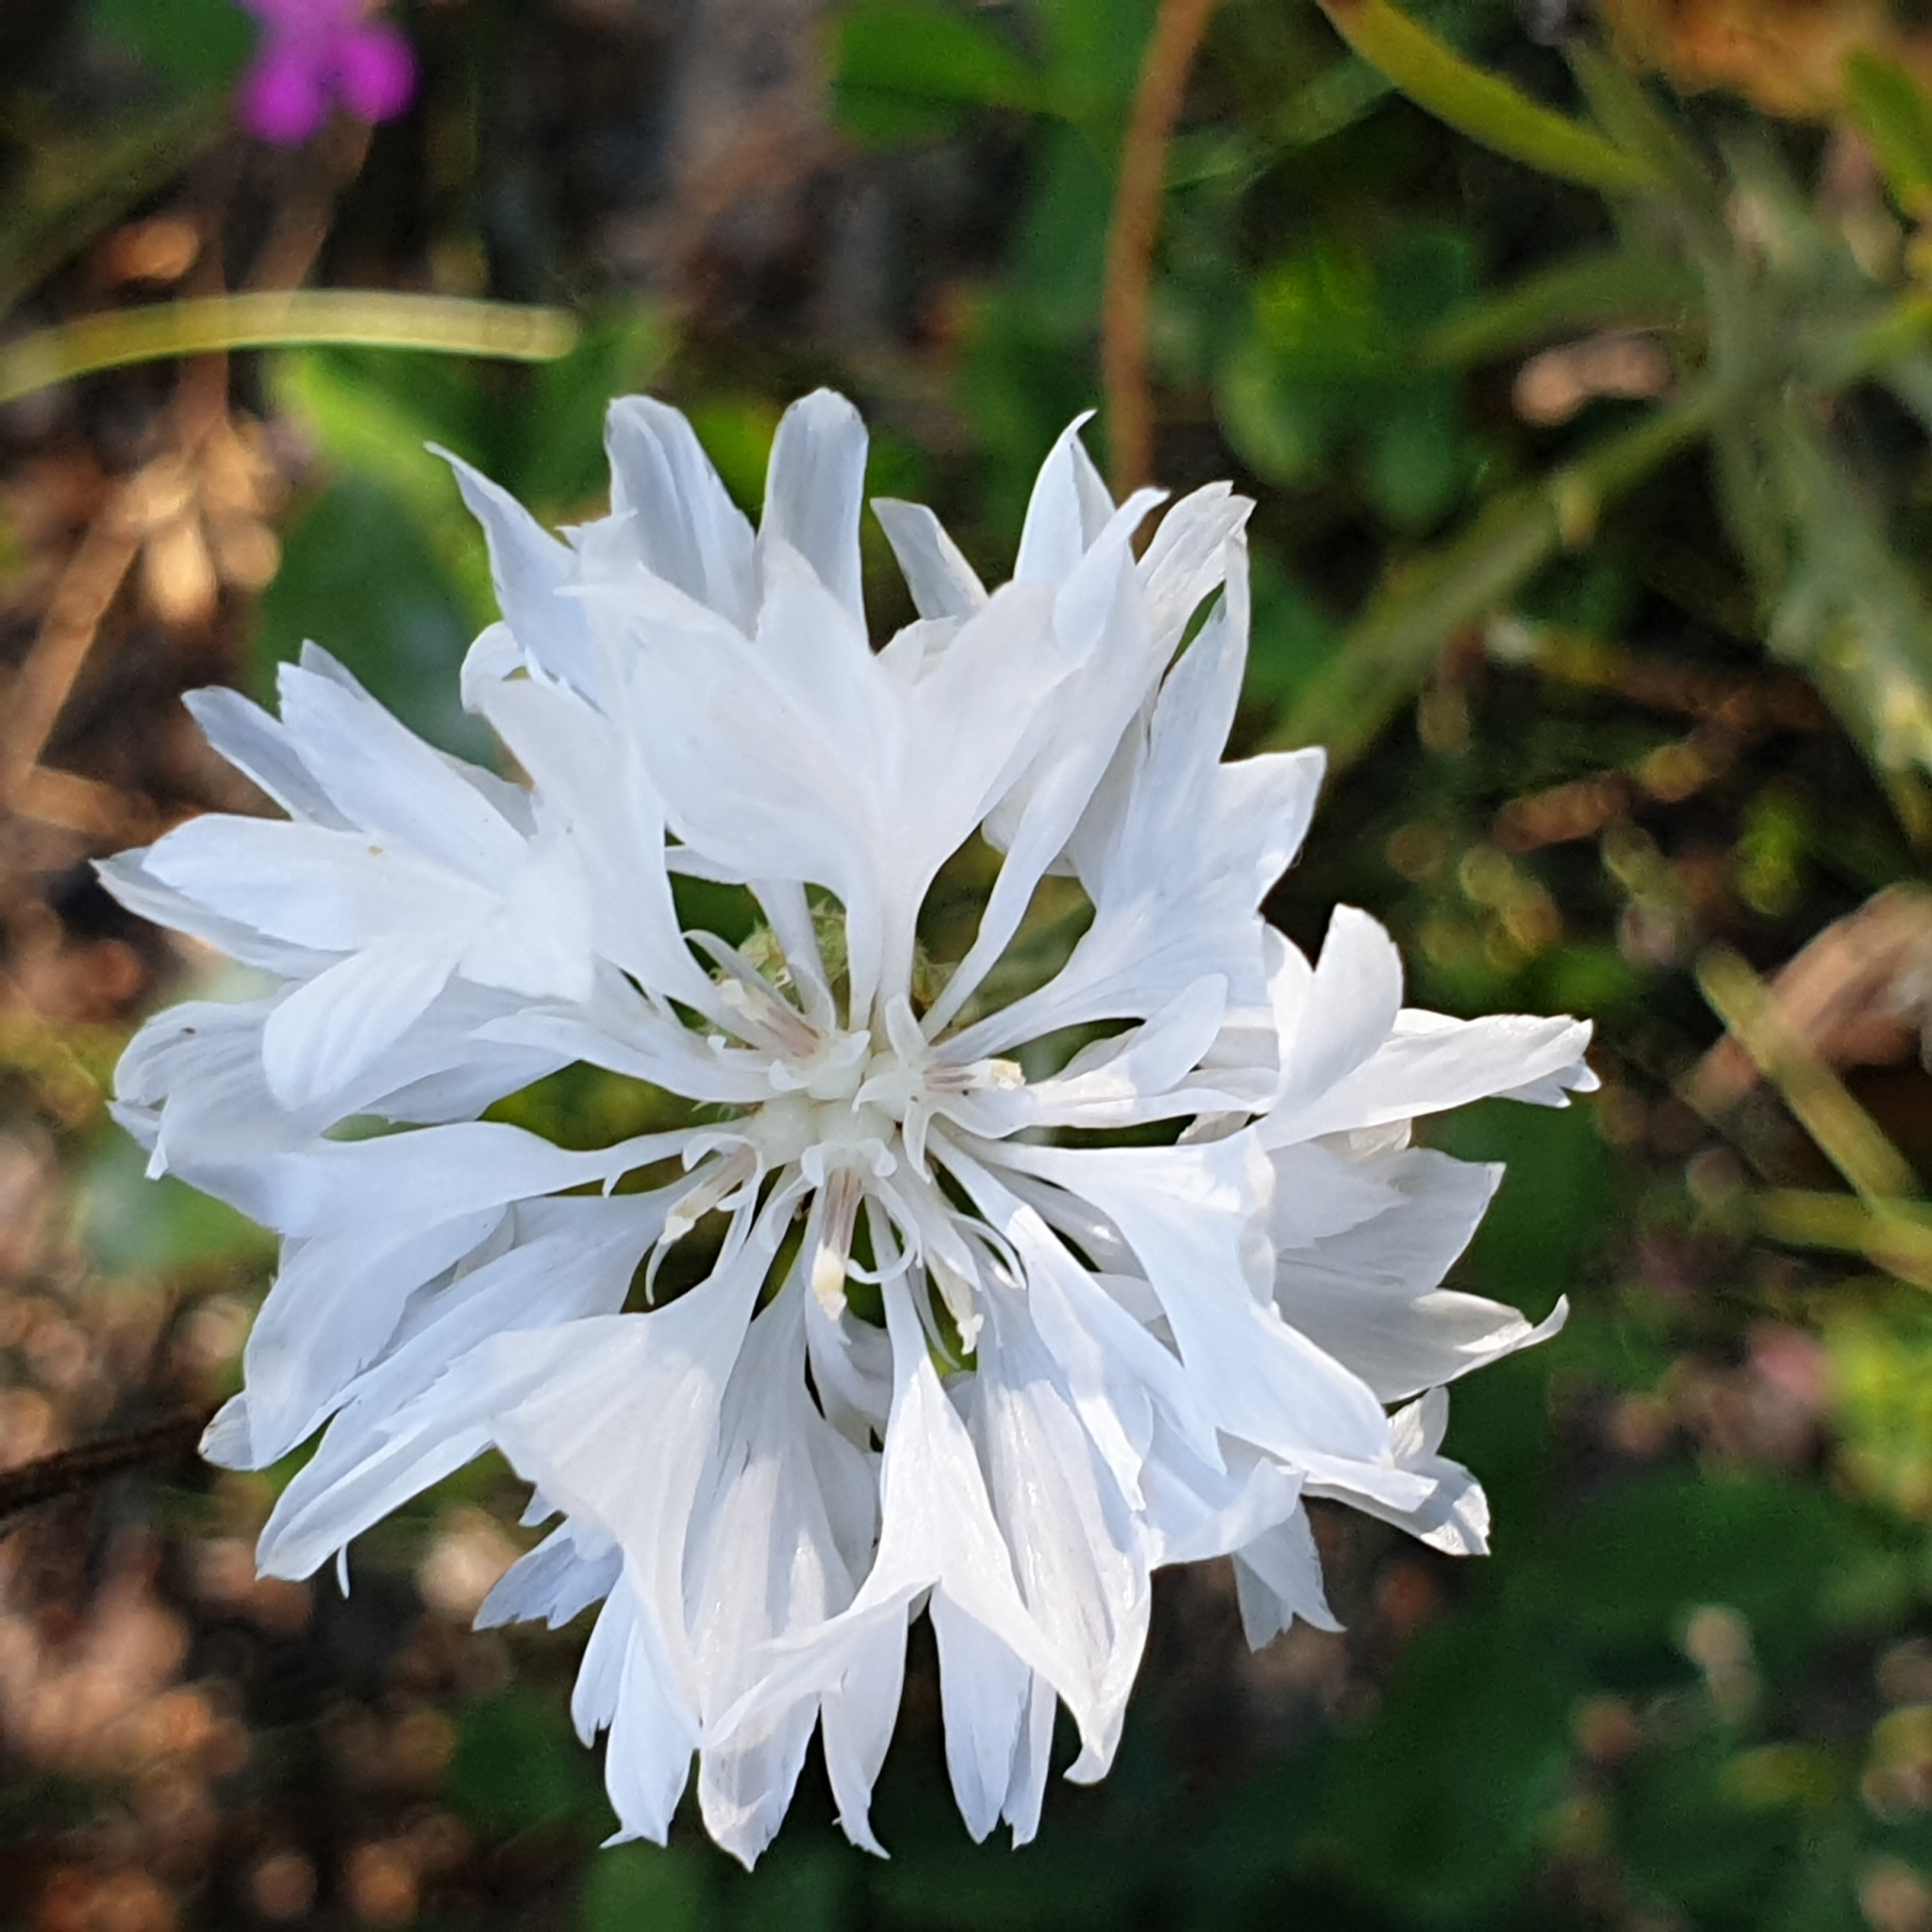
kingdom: Plantae
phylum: Tracheophyta
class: Magnoliopsida
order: Asterales
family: Asteraceae
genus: Centaurea
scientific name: Centaurea cyanus
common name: Cornflower
